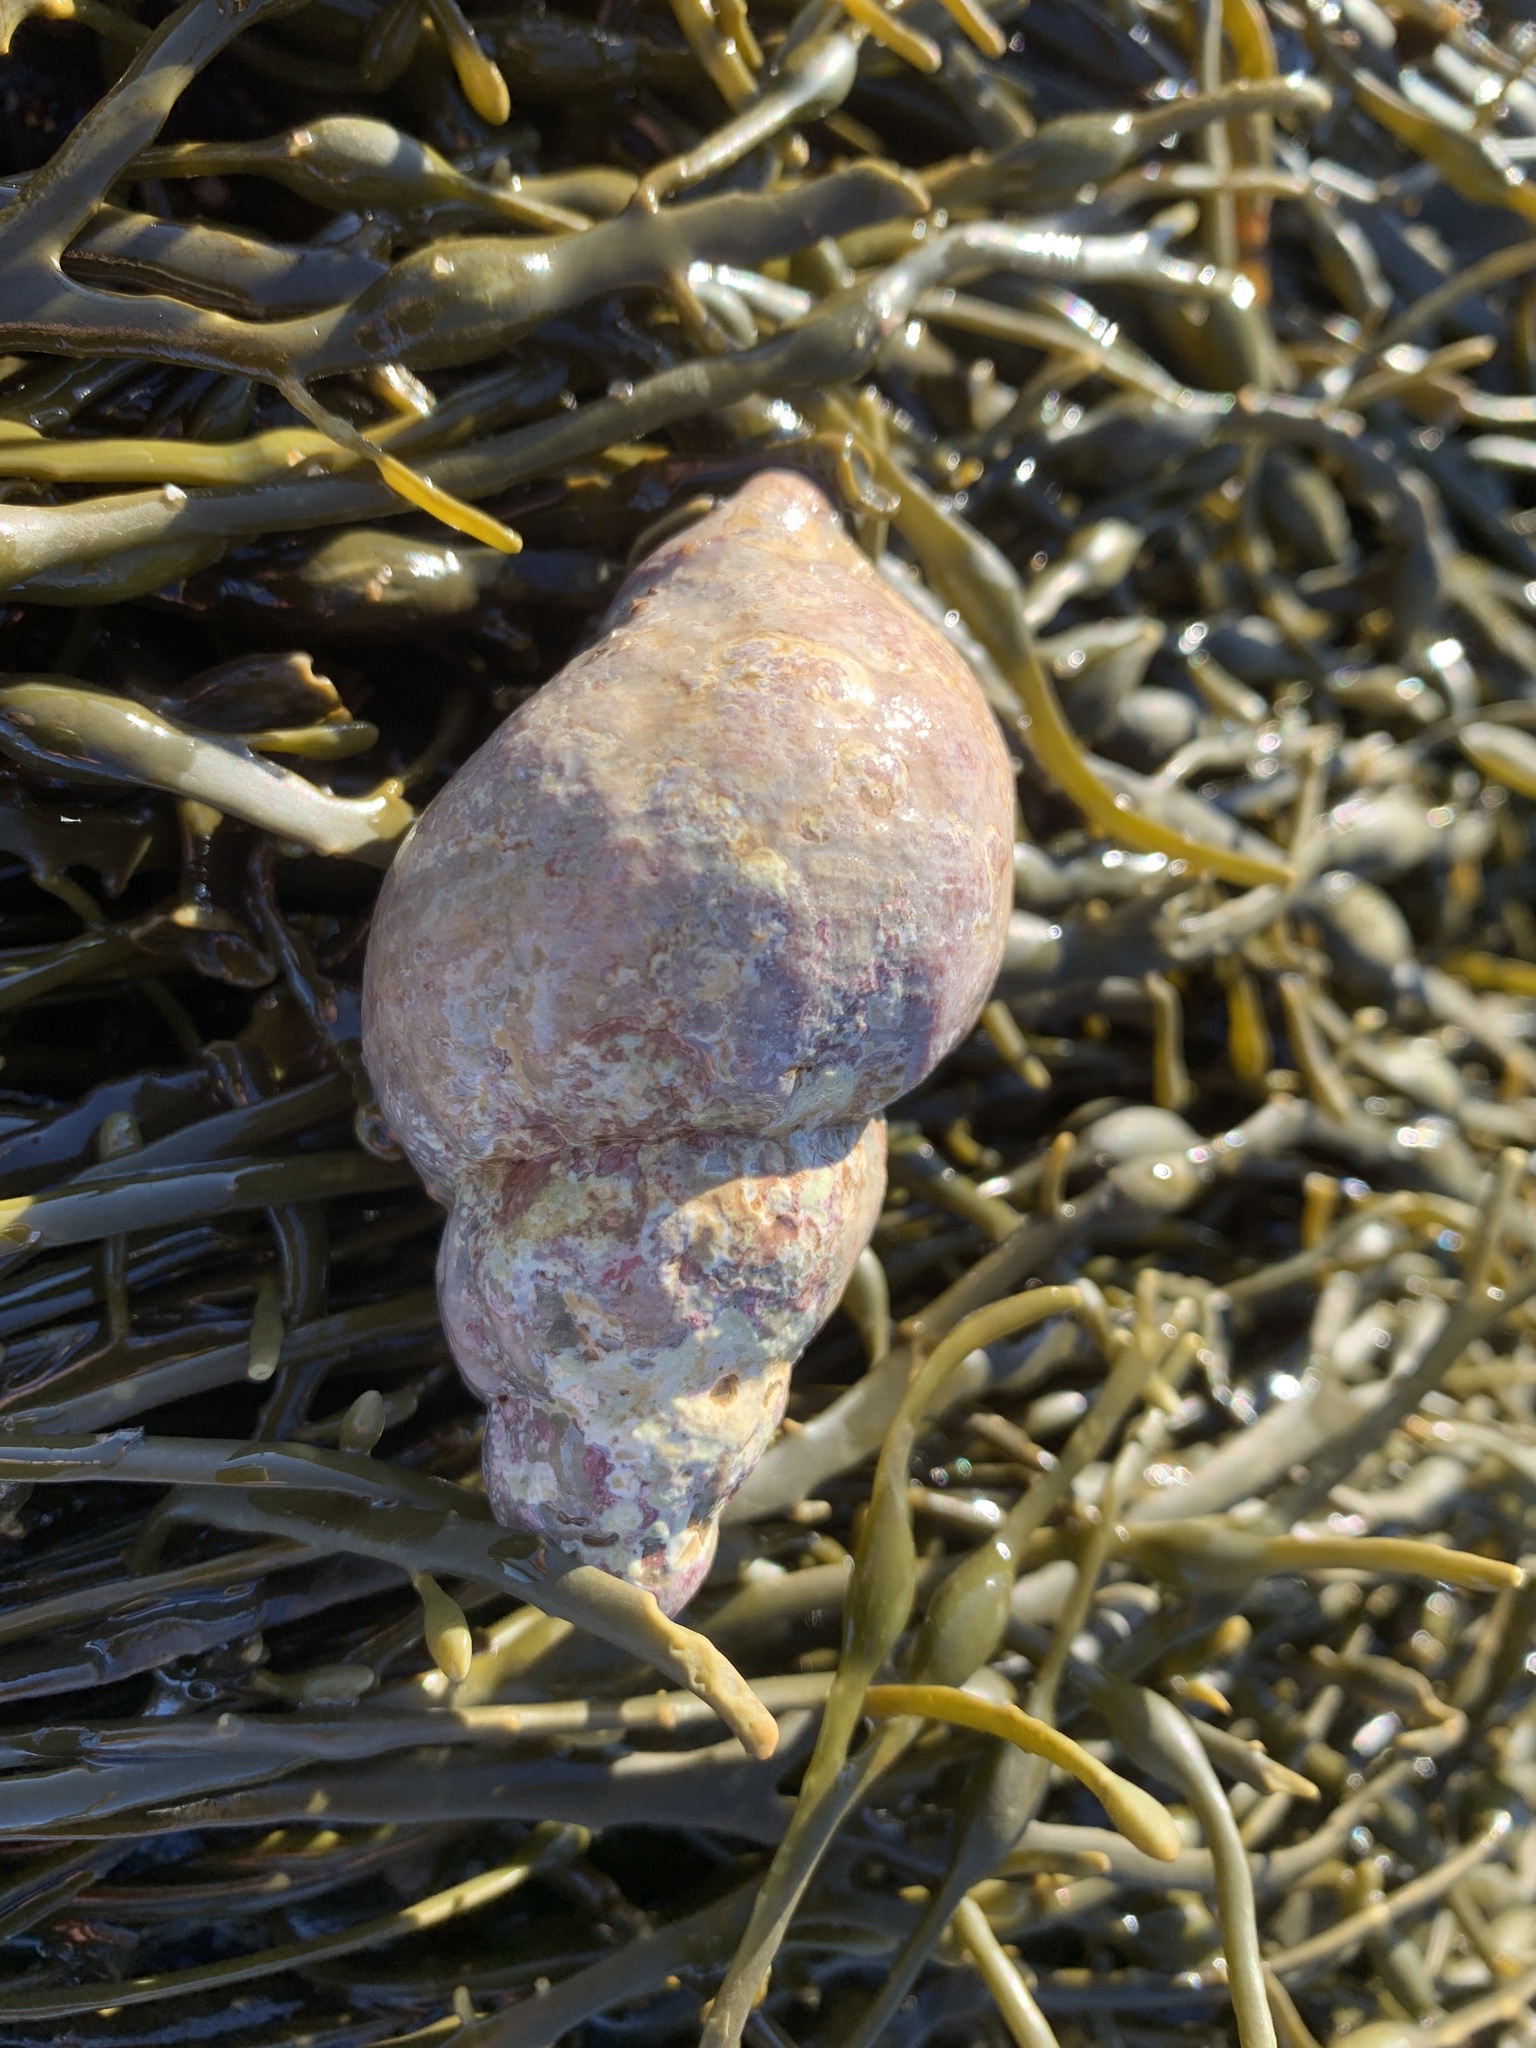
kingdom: Animalia
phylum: Mollusca
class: Gastropoda
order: Neogastropoda
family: Buccinidae
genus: Buccinum
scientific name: Buccinum undatum
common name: Common whelk
